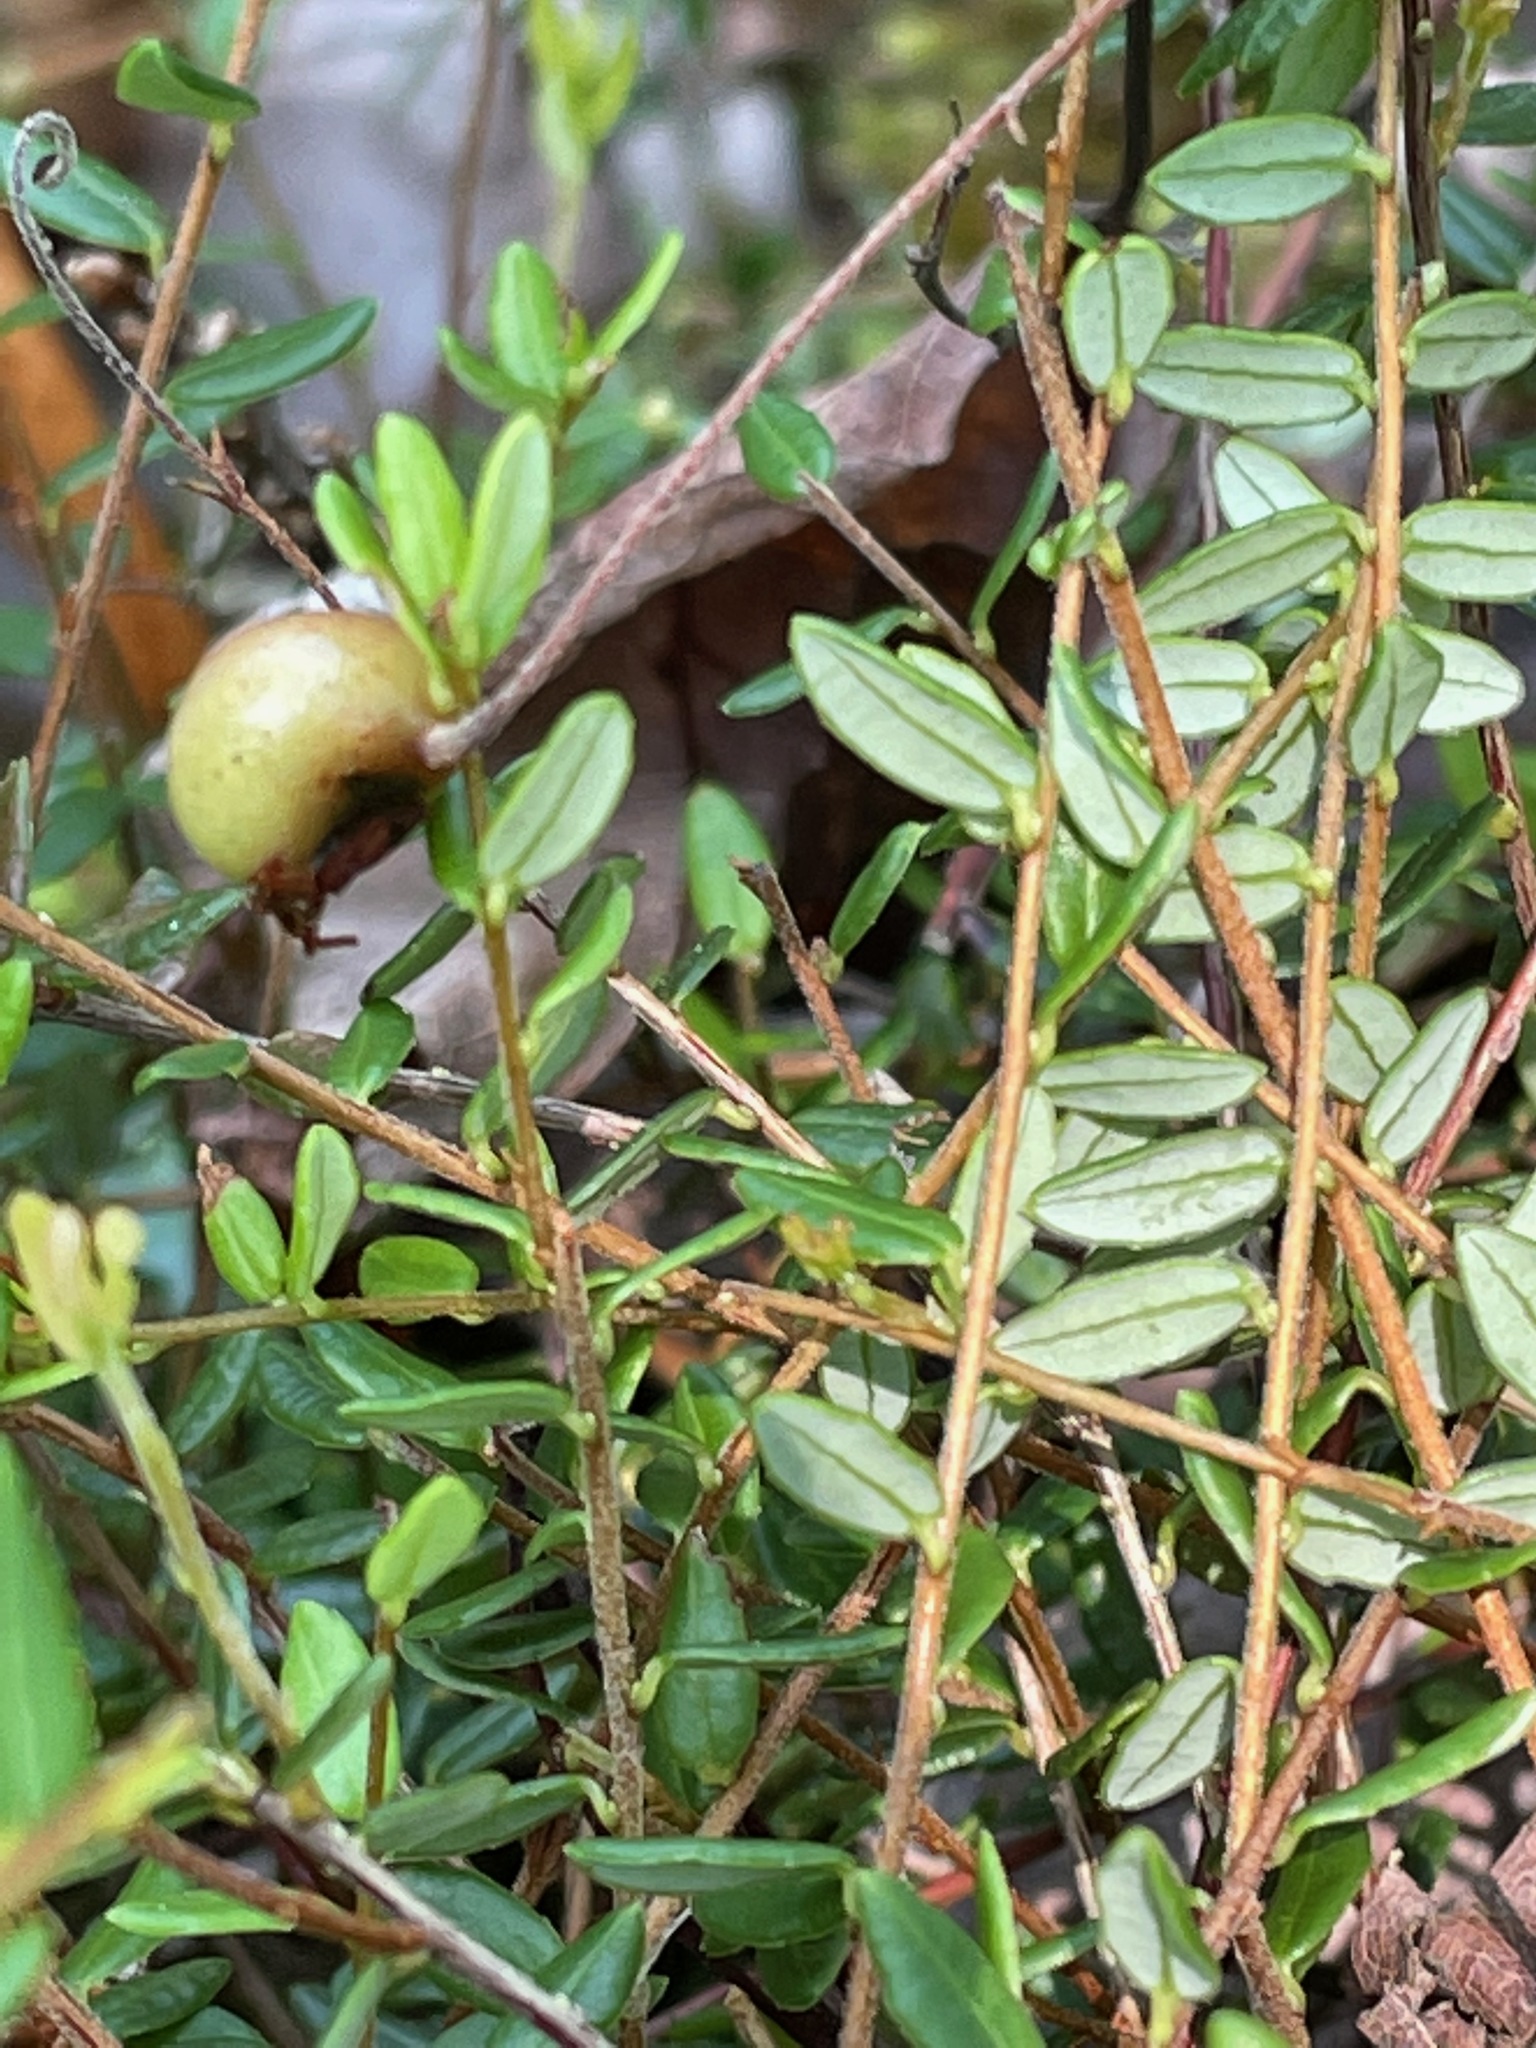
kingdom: Plantae
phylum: Tracheophyta
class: Magnoliopsida
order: Ericales
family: Ericaceae
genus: Vaccinium
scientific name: Vaccinium macrocarpon
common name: American cranberry
